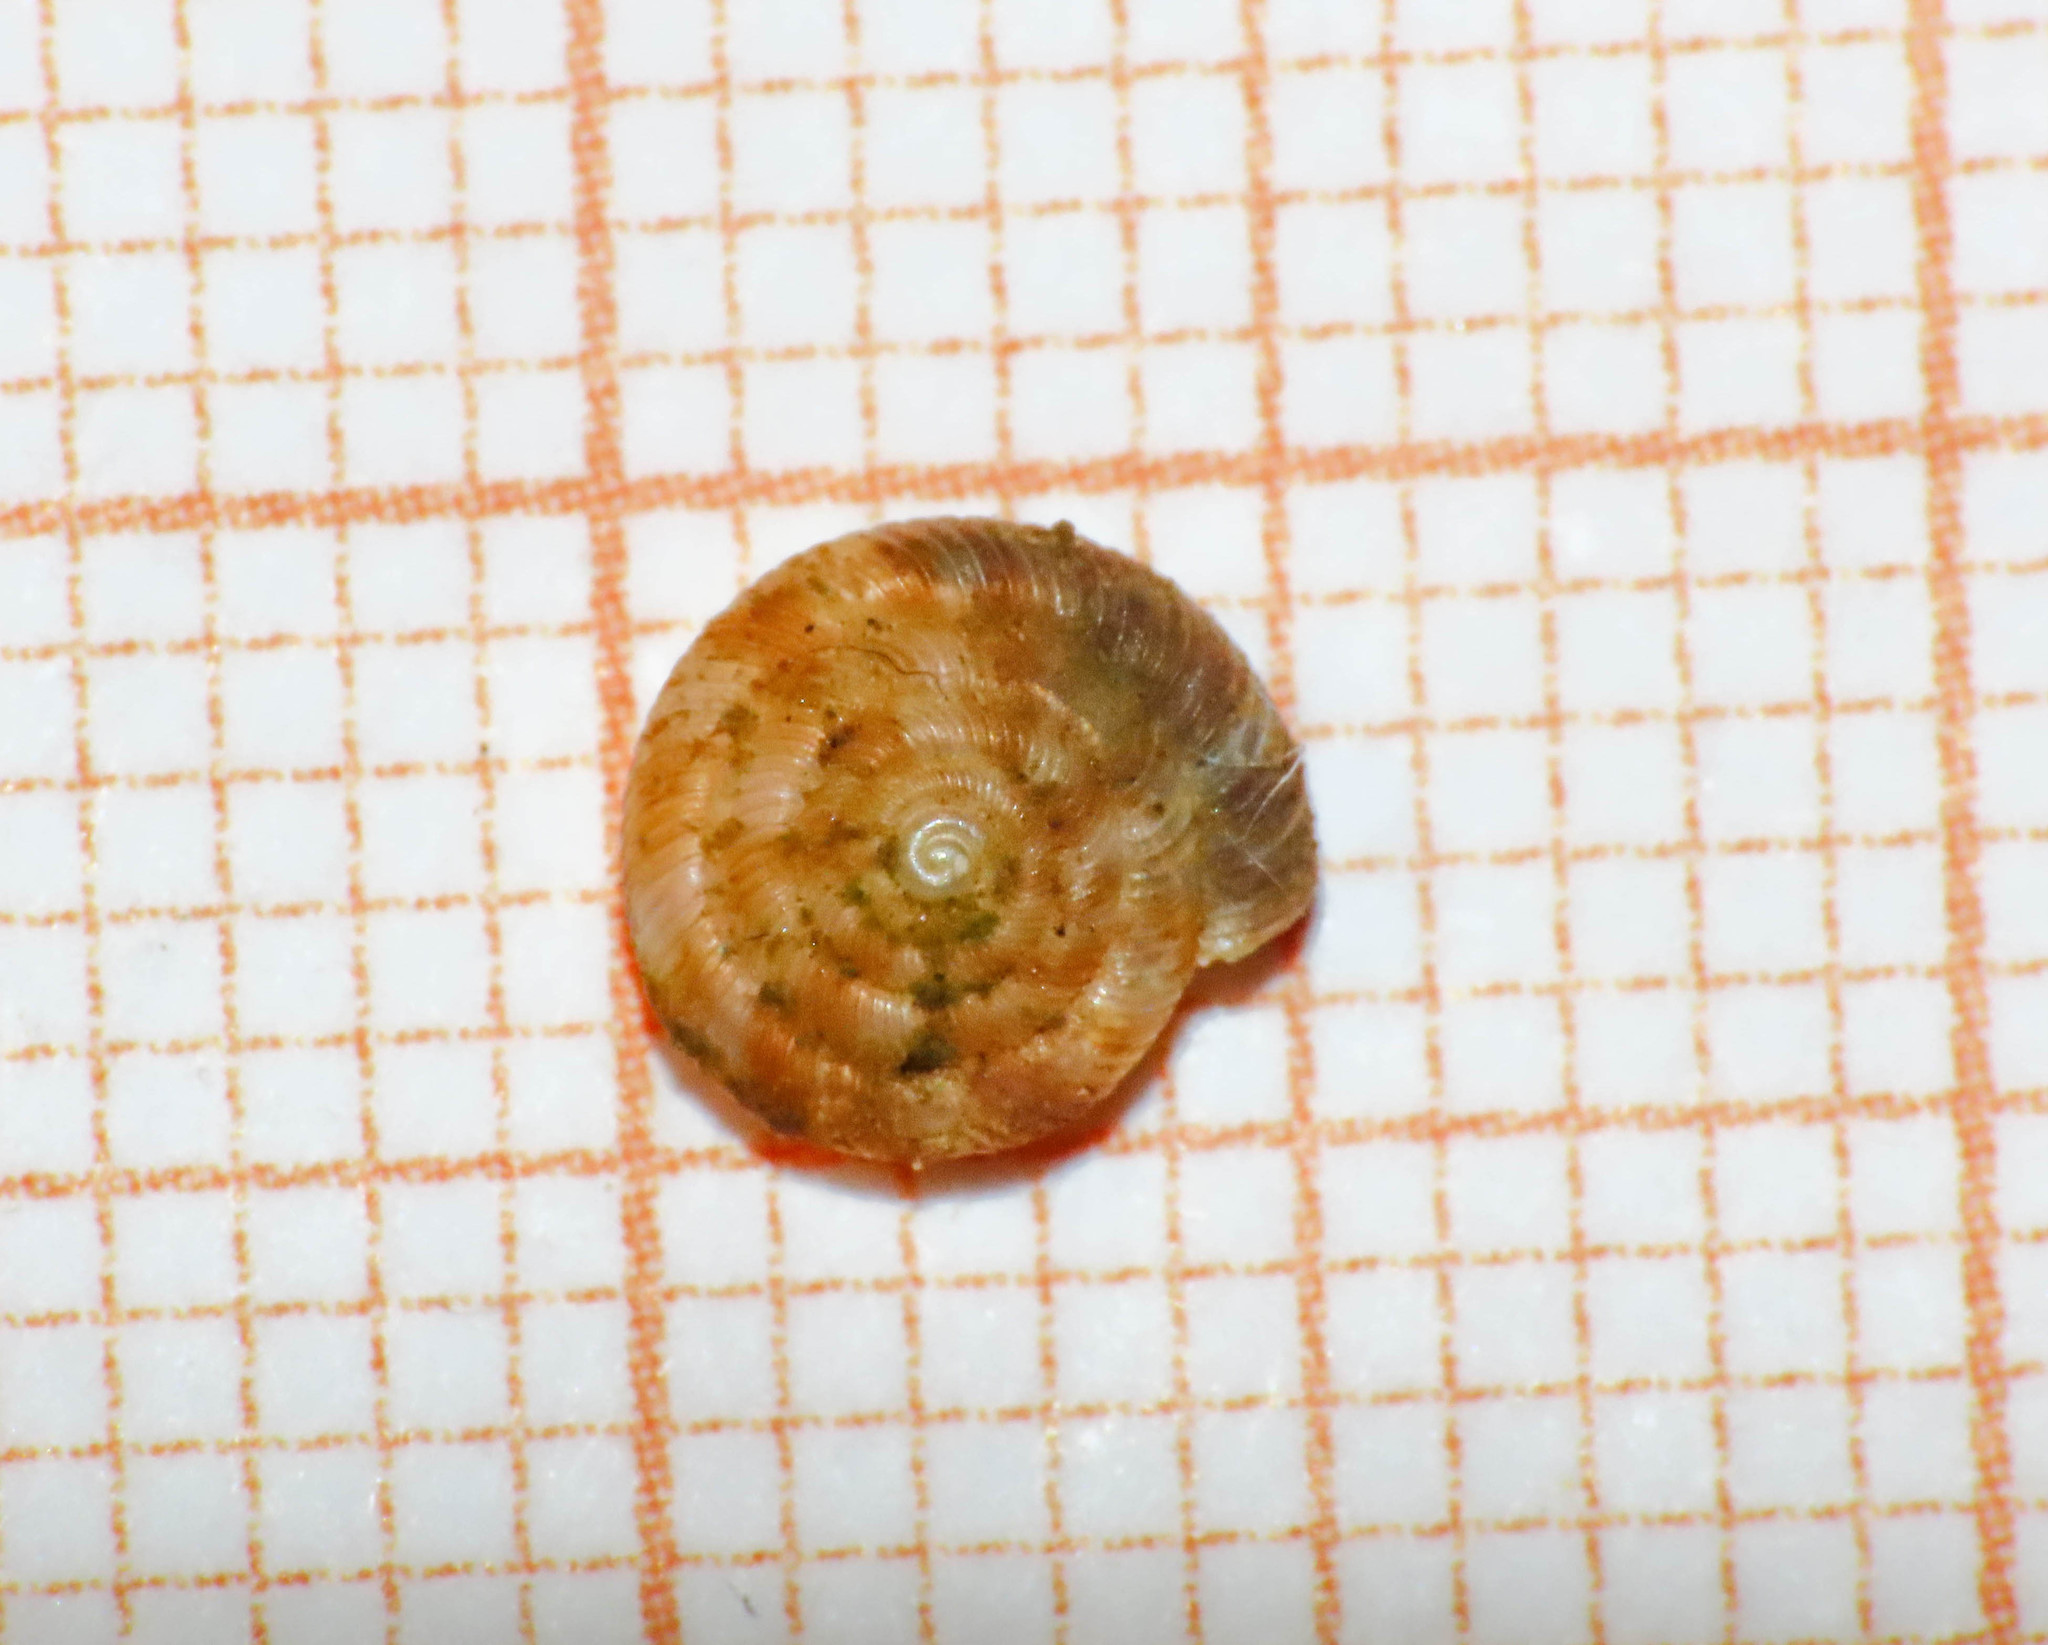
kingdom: Animalia
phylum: Mollusca
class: Gastropoda
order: Stylommatophora
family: Discidae
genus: Discus
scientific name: Discus rotundatus
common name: Rounded snail
